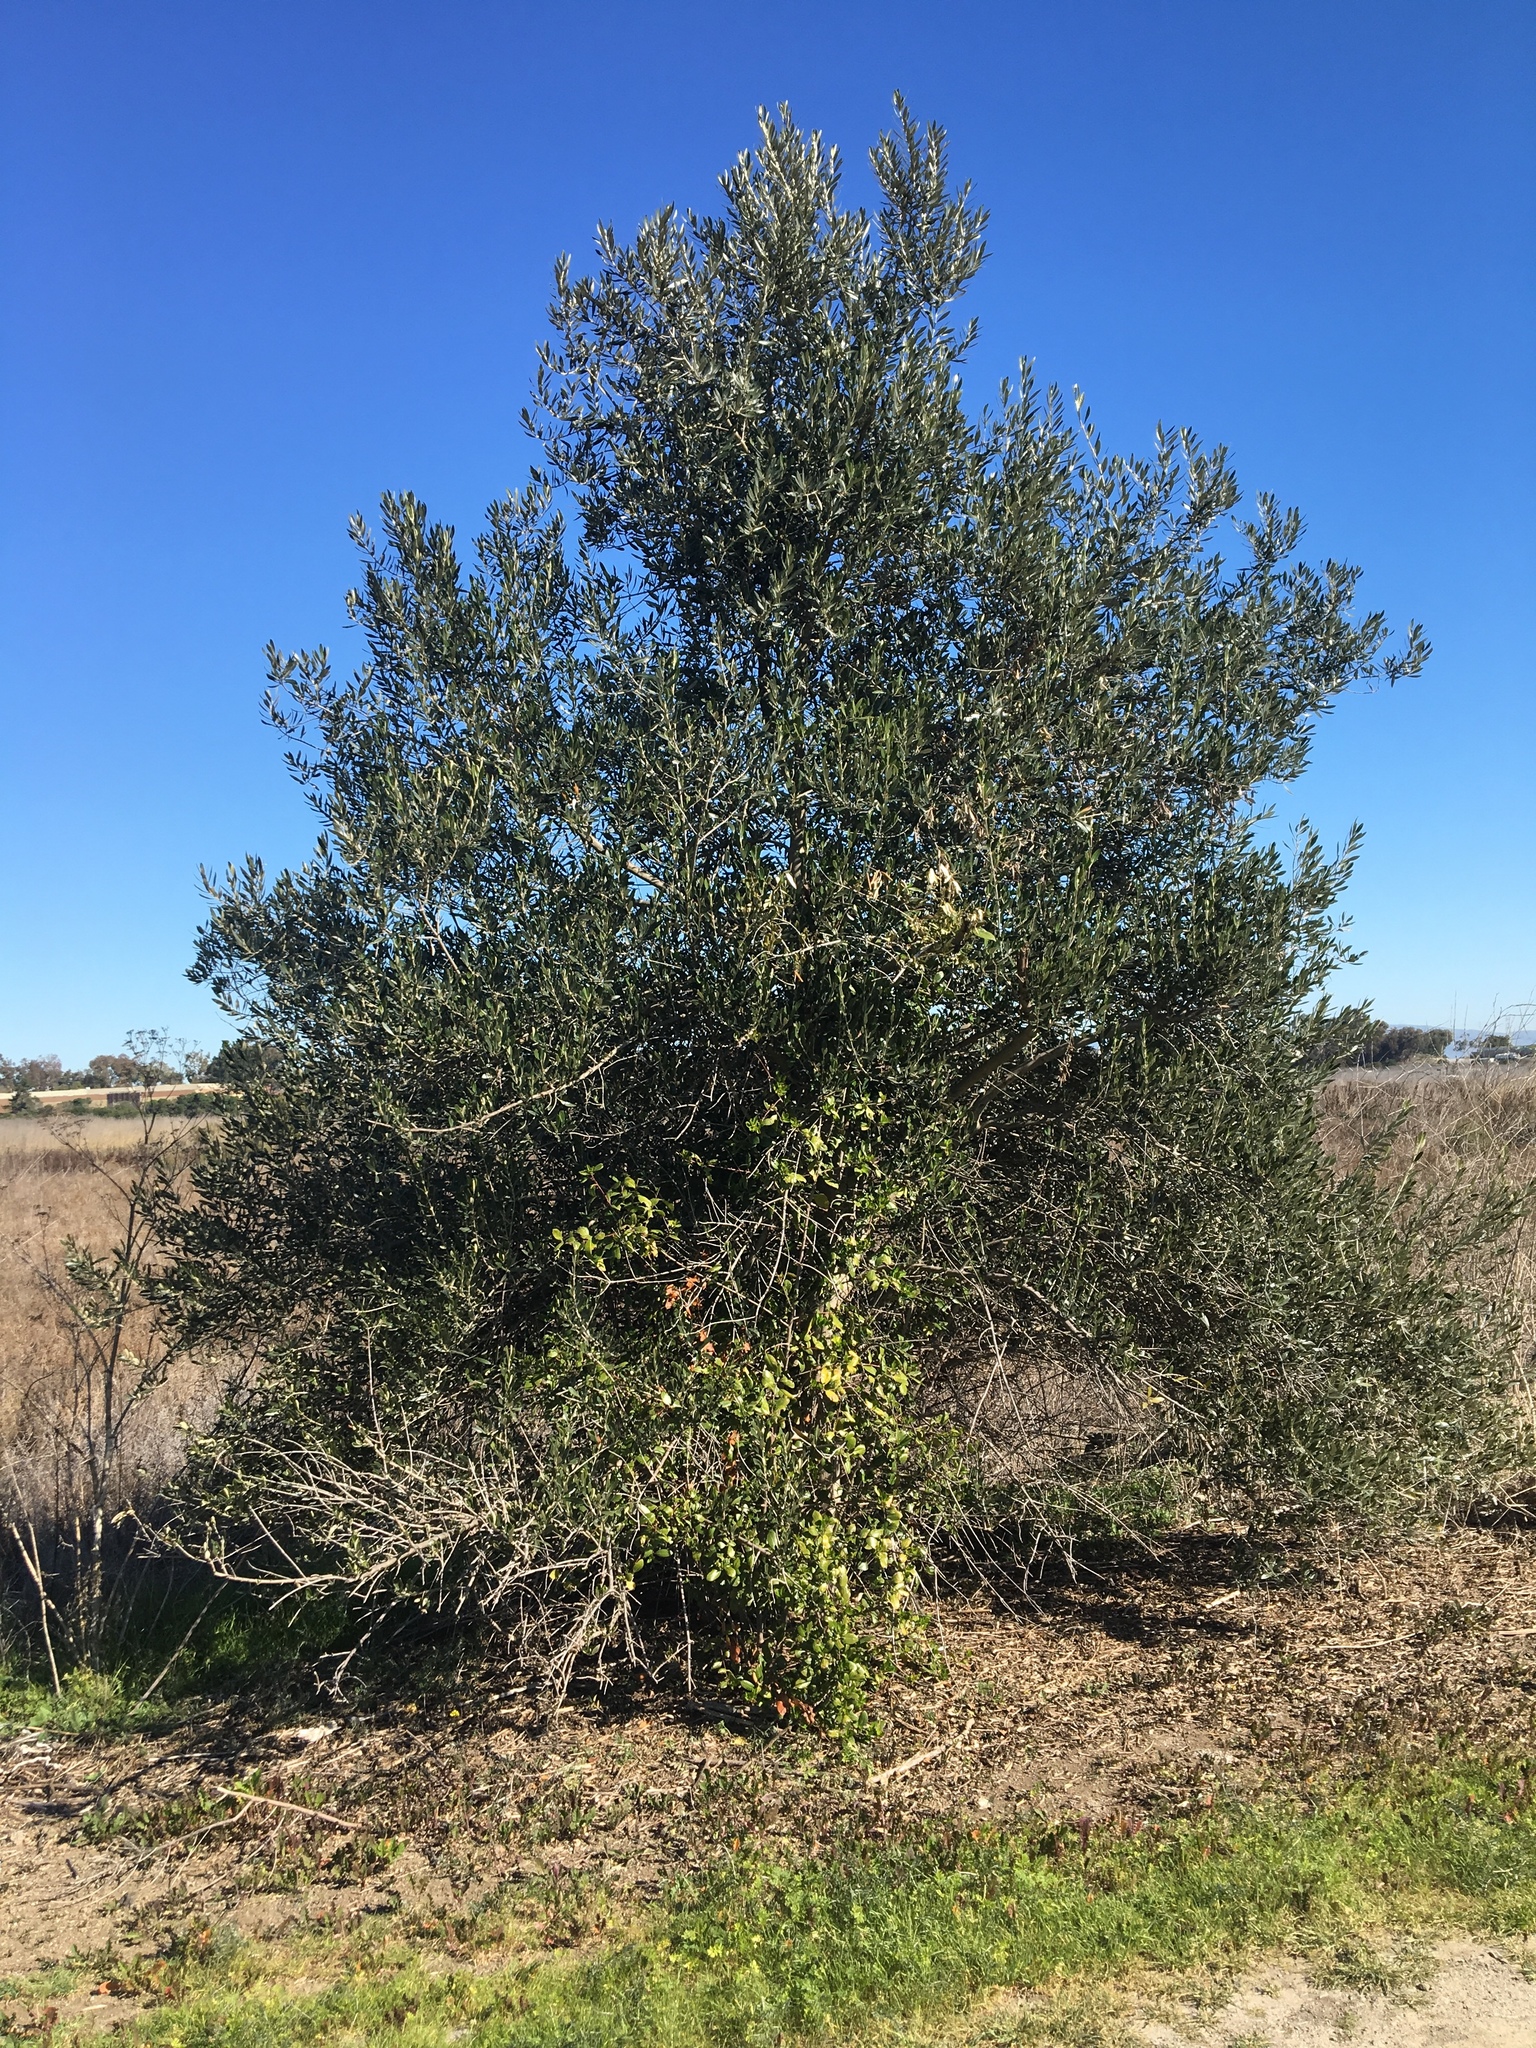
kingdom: Plantae
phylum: Tracheophyta
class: Magnoliopsida
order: Lamiales
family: Oleaceae
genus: Olea
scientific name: Olea europaea
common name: Olive
